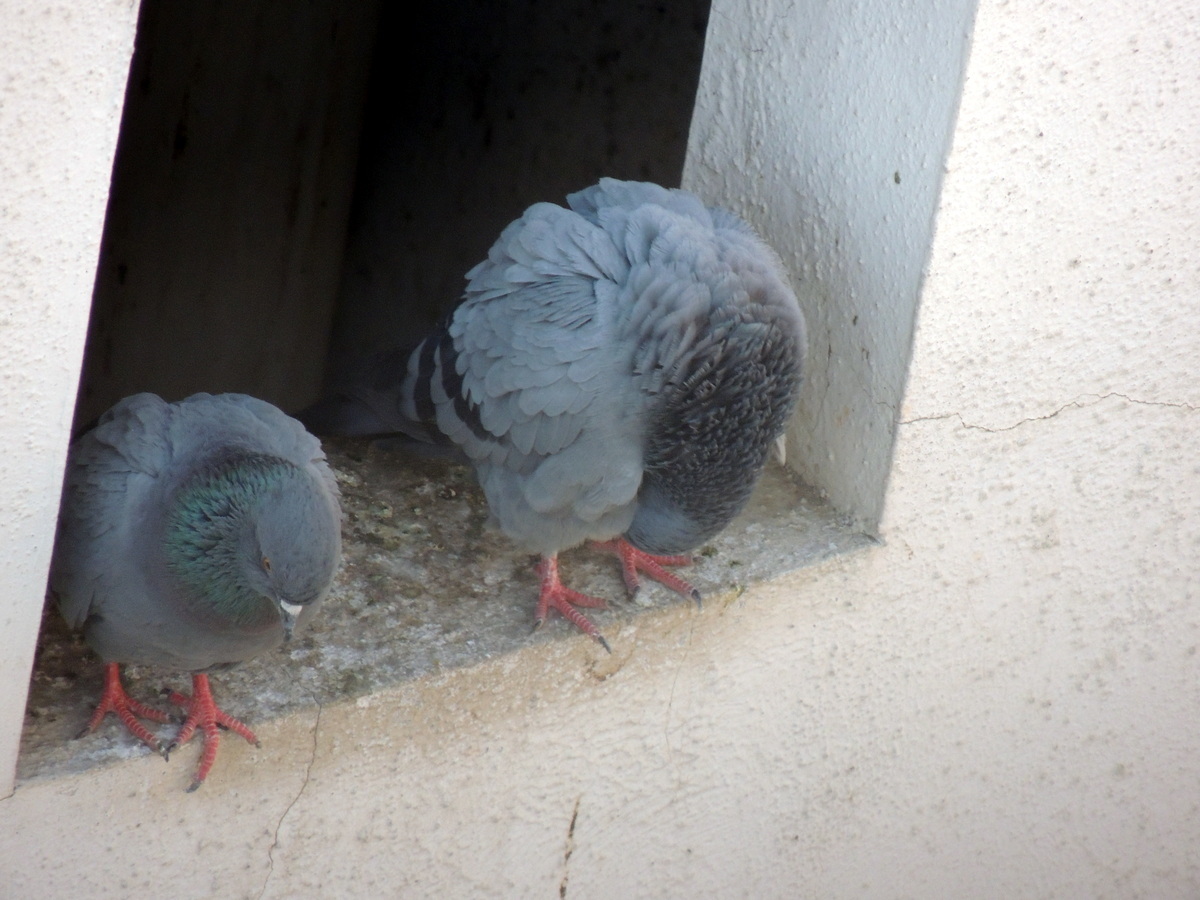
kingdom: Animalia
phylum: Chordata
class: Aves
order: Columbiformes
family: Columbidae
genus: Columba
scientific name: Columba livia
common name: Rock pigeon
